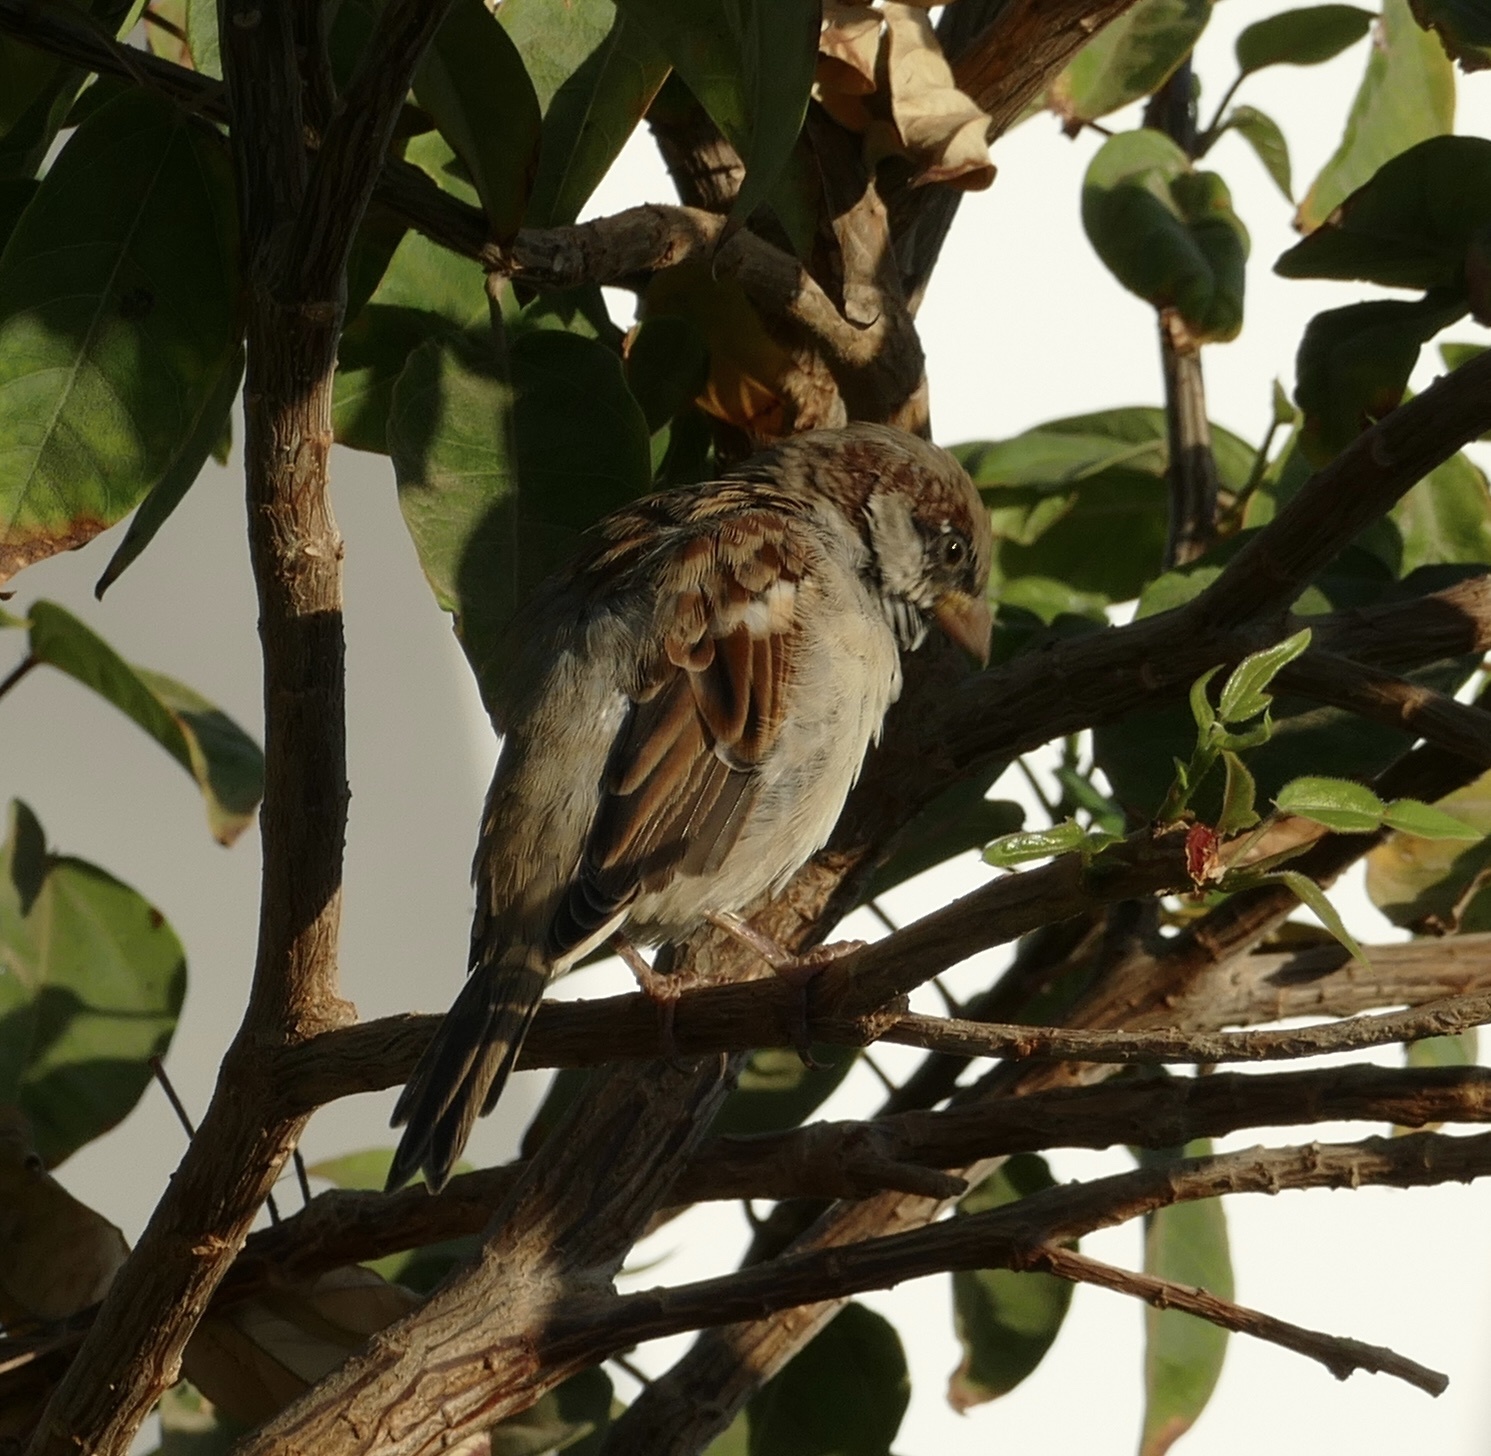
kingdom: Animalia
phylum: Chordata
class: Aves
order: Passeriformes
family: Passeridae
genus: Passer
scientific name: Passer domesticus
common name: House sparrow
